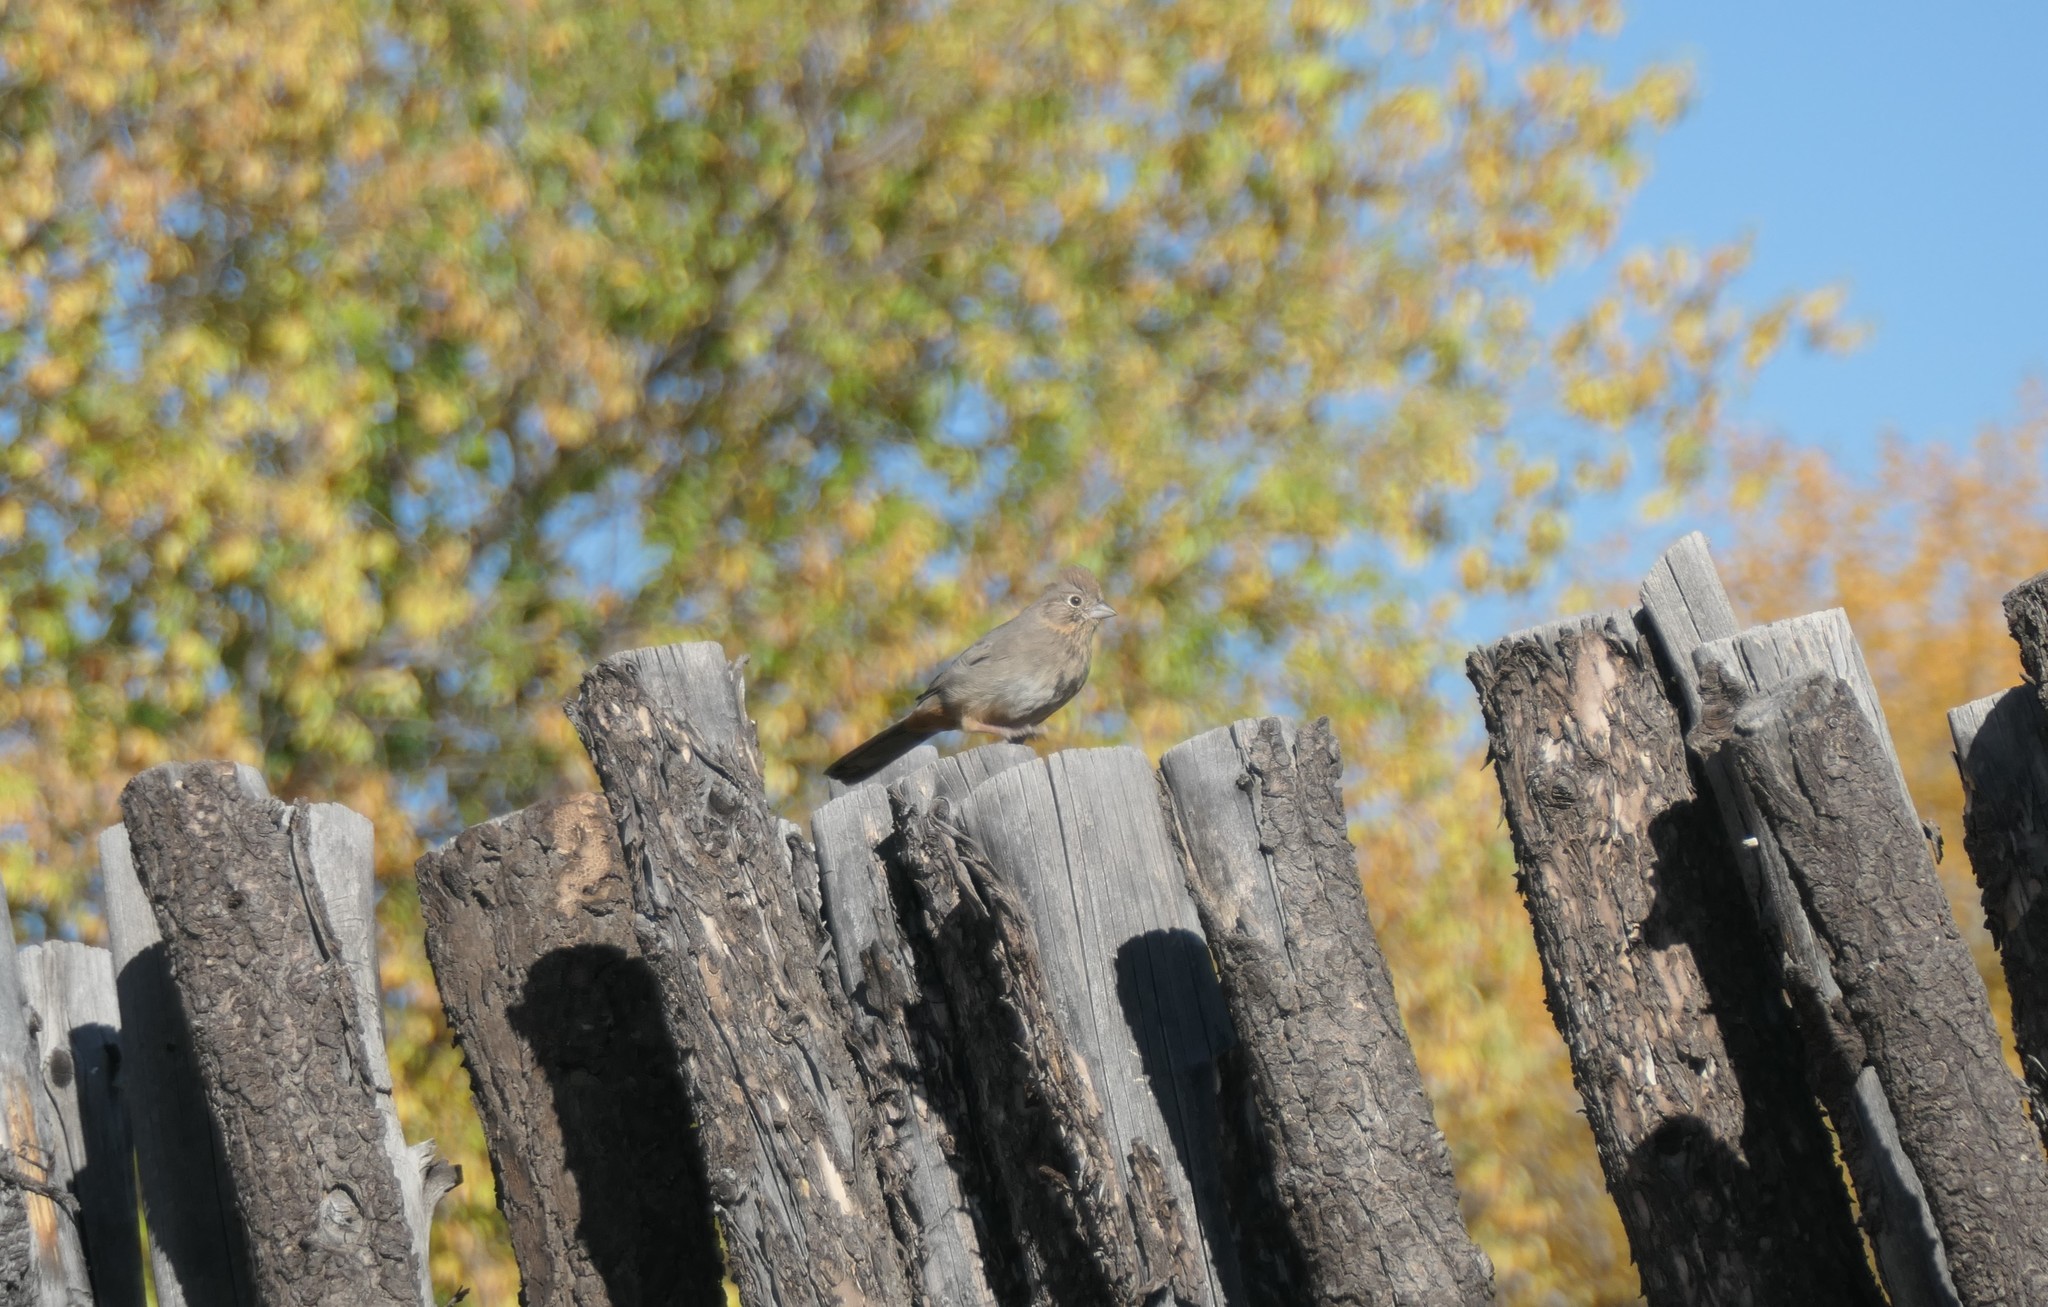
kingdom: Animalia
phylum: Chordata
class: Aves
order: Passeriformes
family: Passerellidae
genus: Melozone
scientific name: Melozone fusca
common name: Canyon towhee
